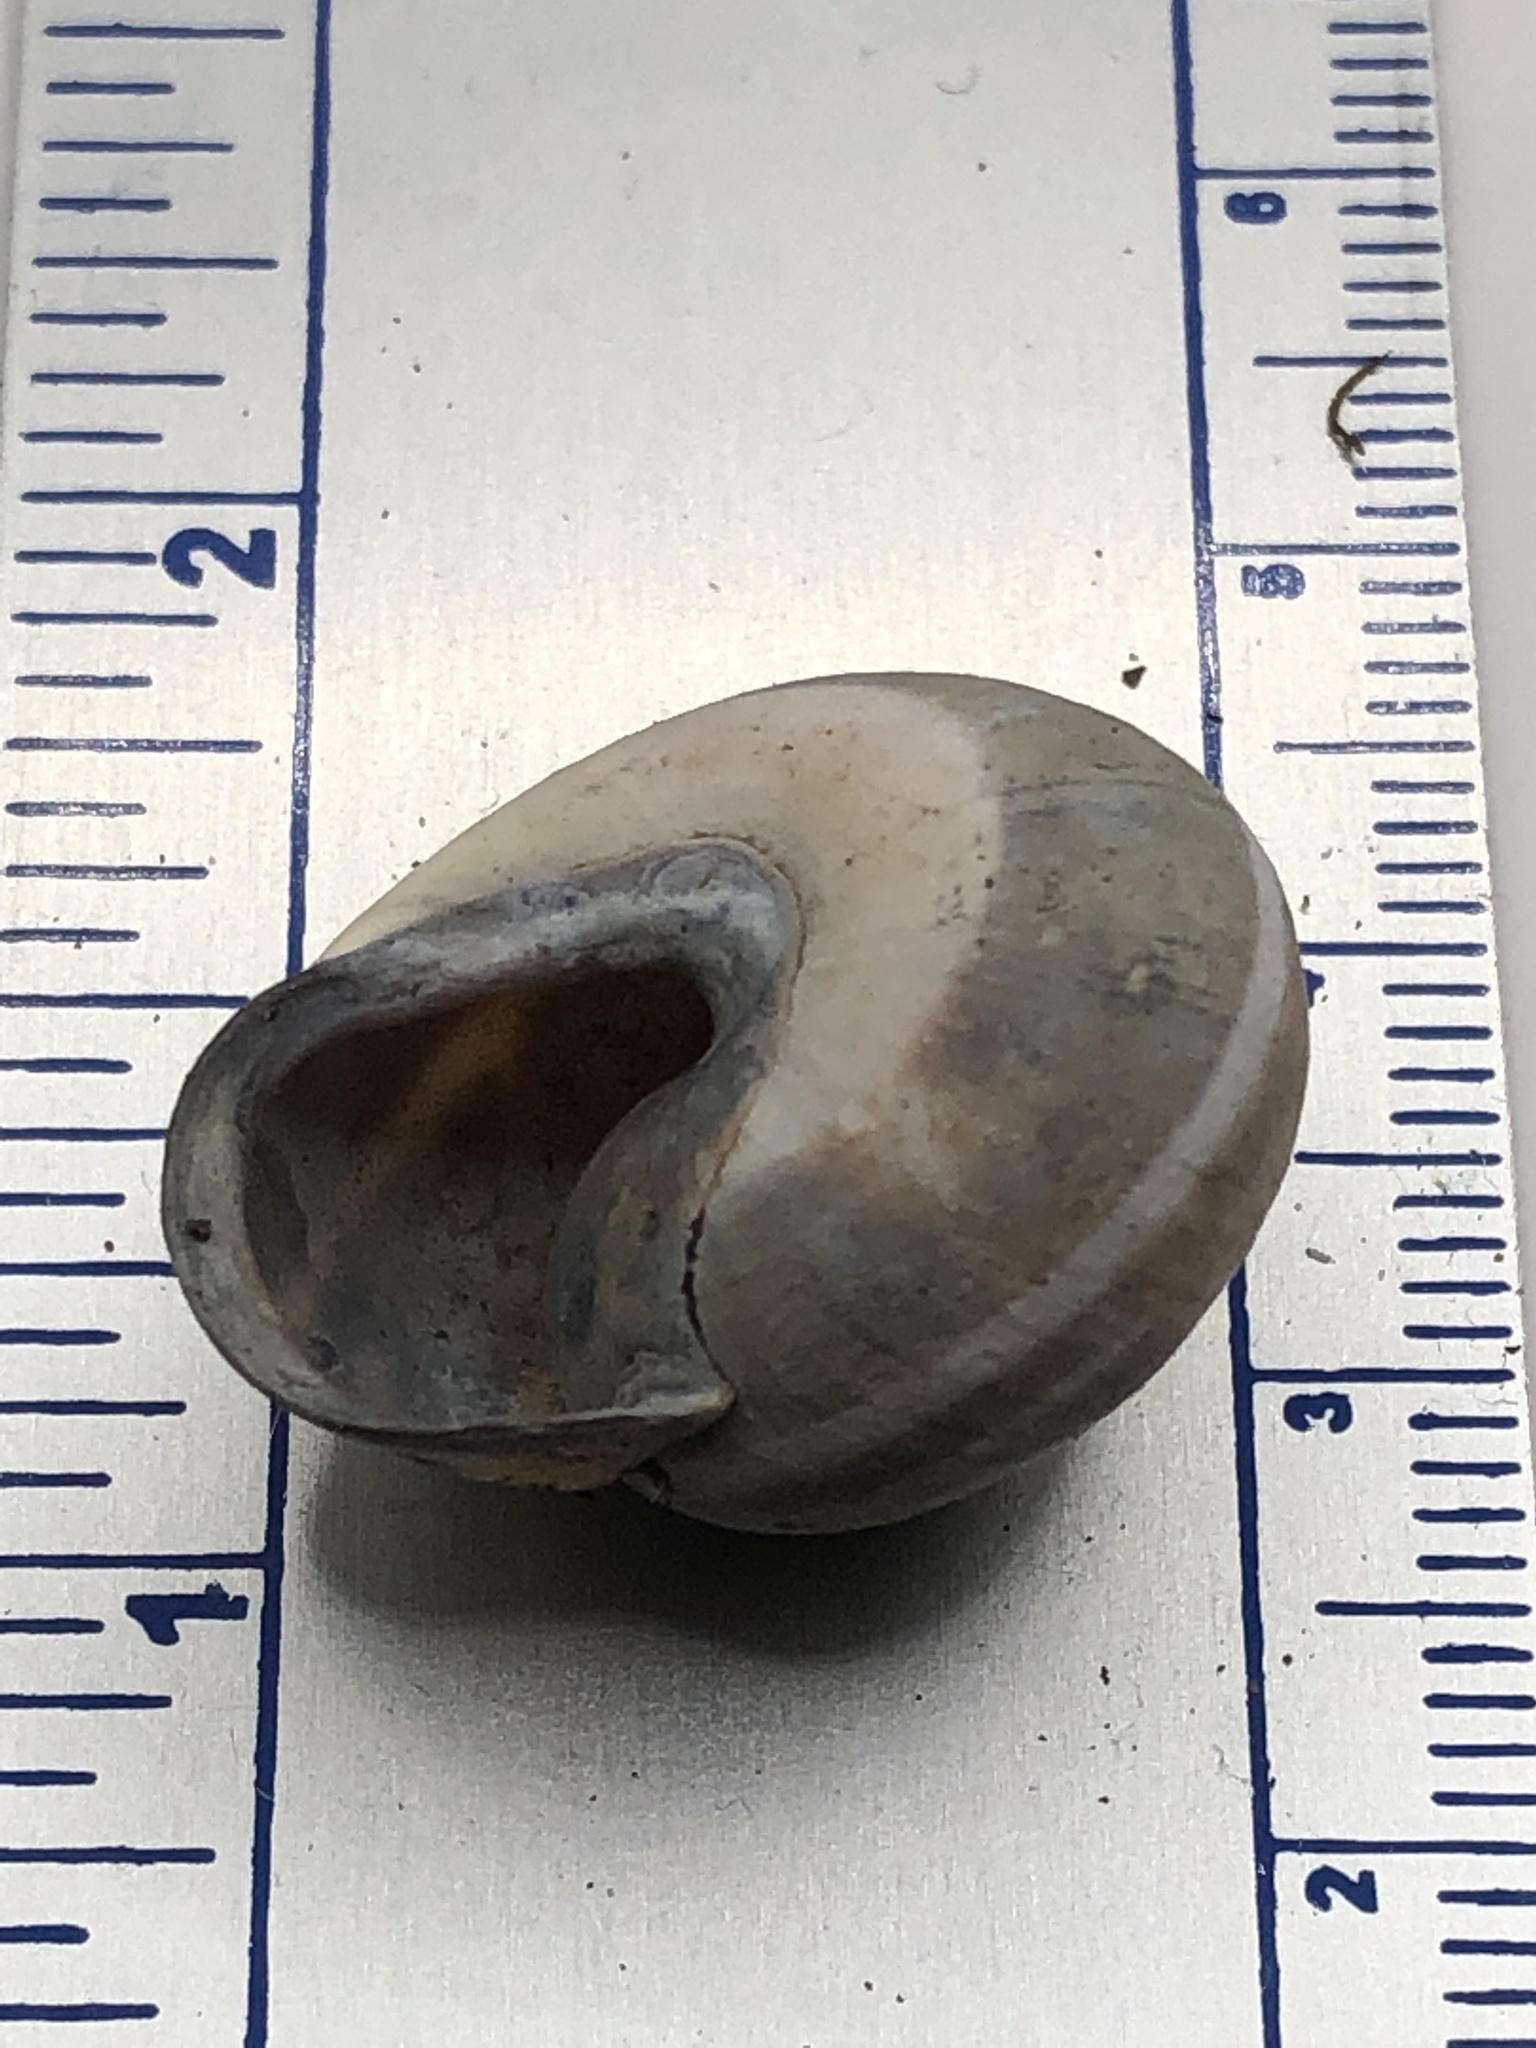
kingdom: Animalia
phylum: Mollusca
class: Gastropoda
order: Stylommatophora
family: Helicidae
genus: Cepaea
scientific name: Cepaea nemoralis
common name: Grovesnail
